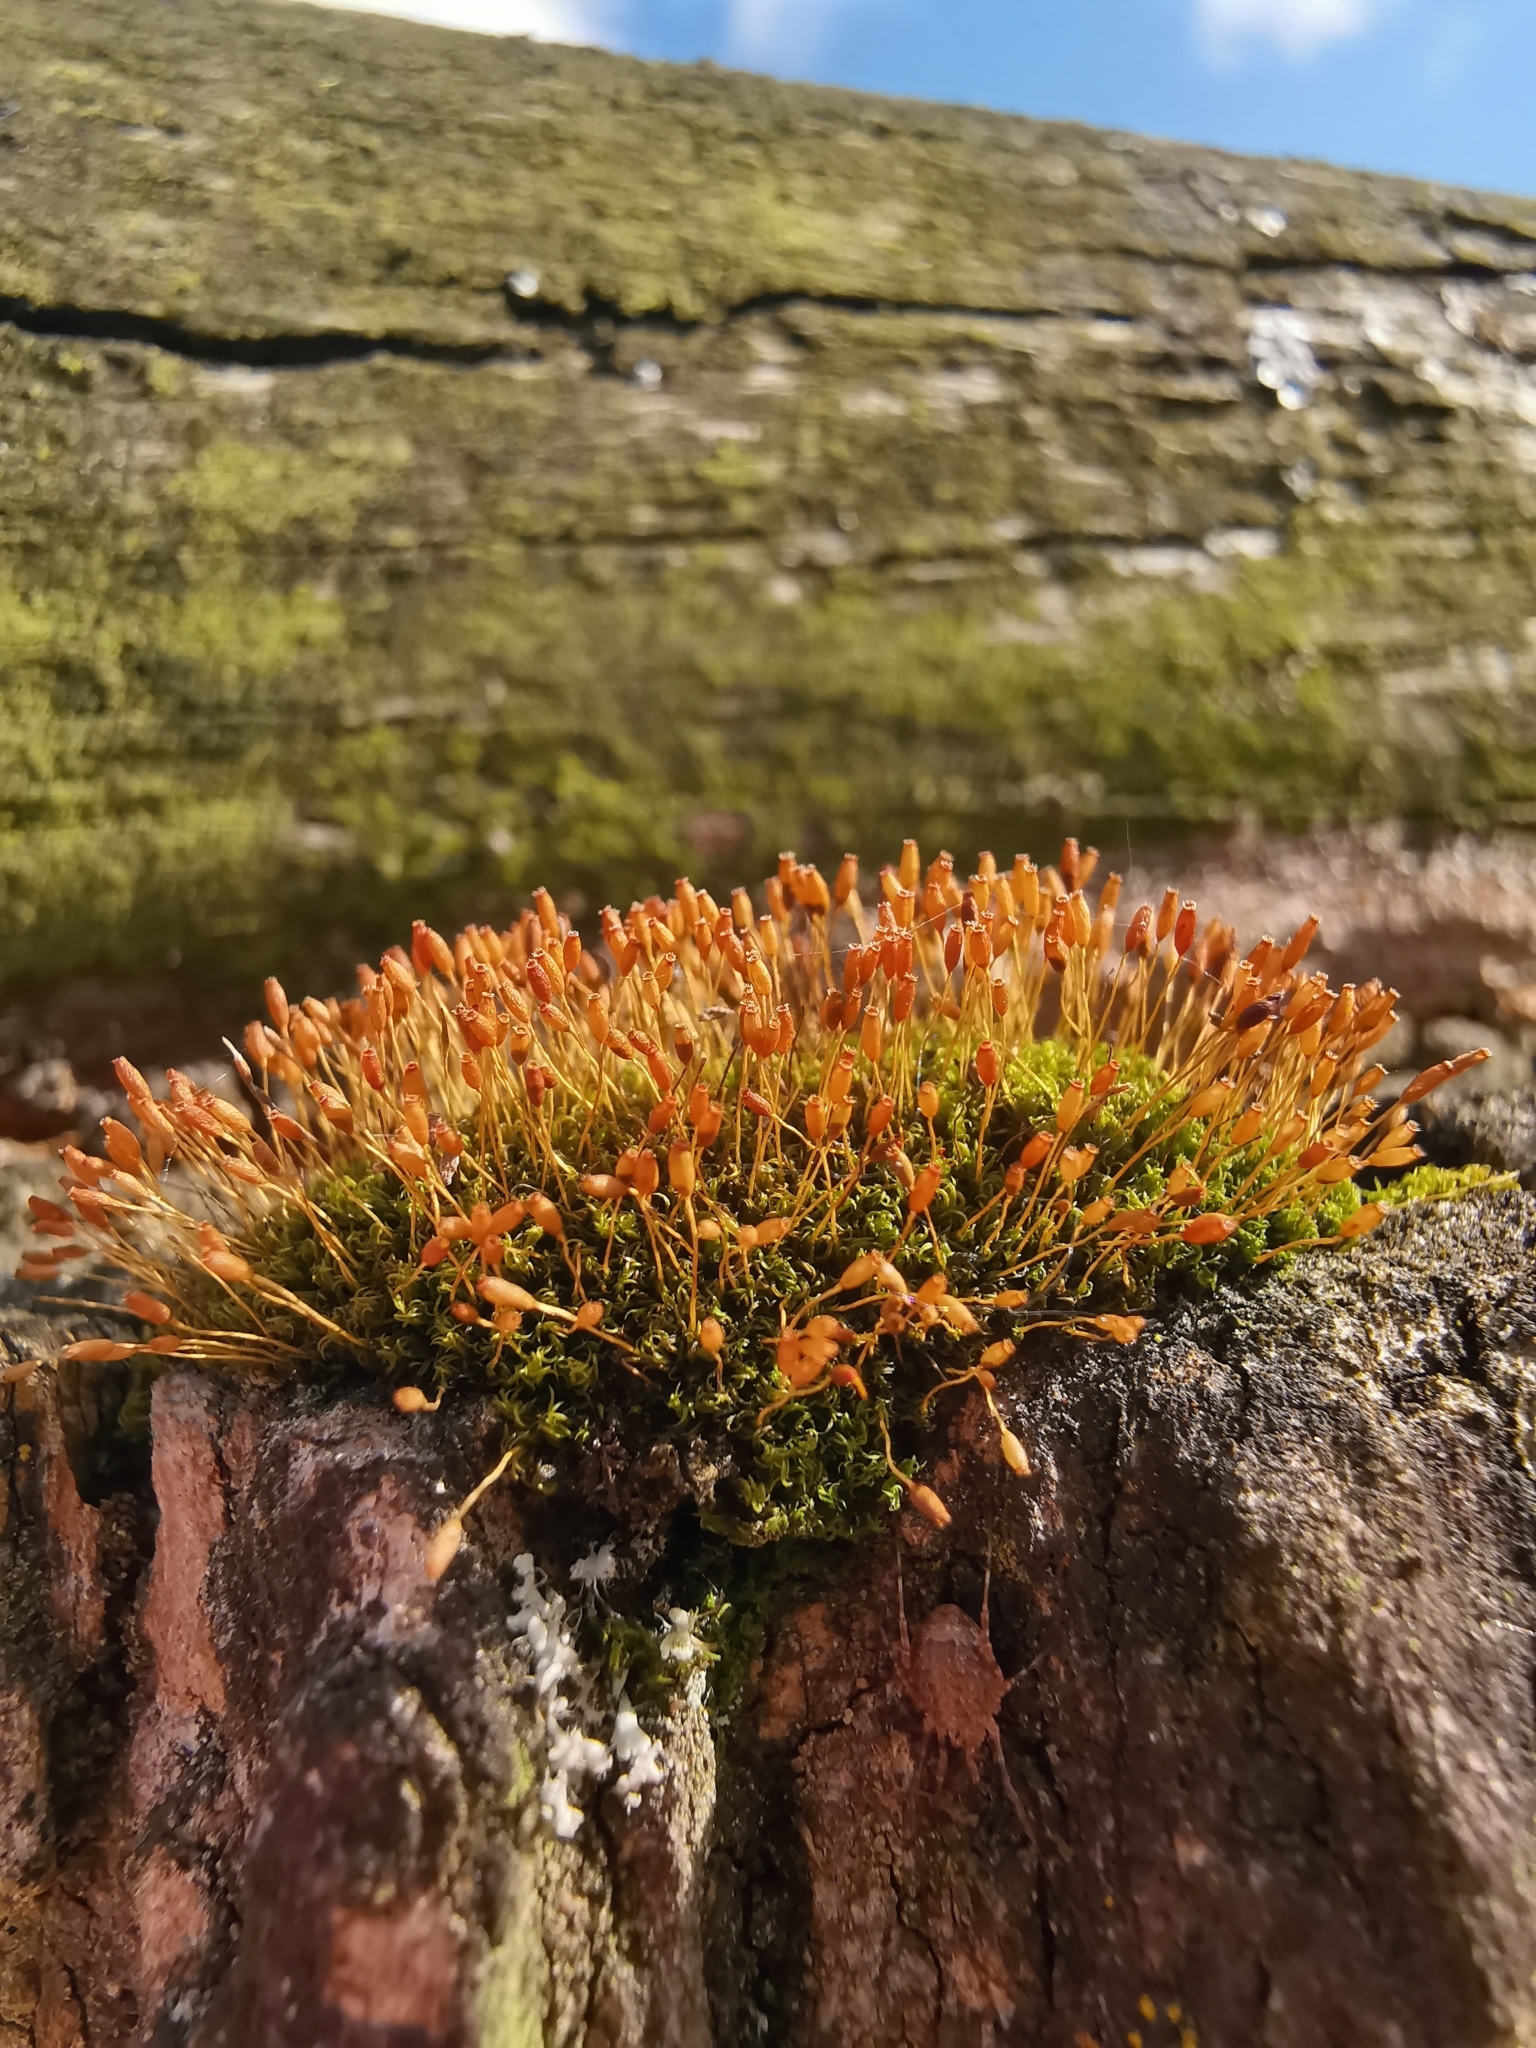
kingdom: Plantae
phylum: Bryophyta
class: Bryopsida
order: Dicranales
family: Rhabdoweisiaceae
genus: Dicranoweisia
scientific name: Dicranoweisia cirrata
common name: Common pincushion
